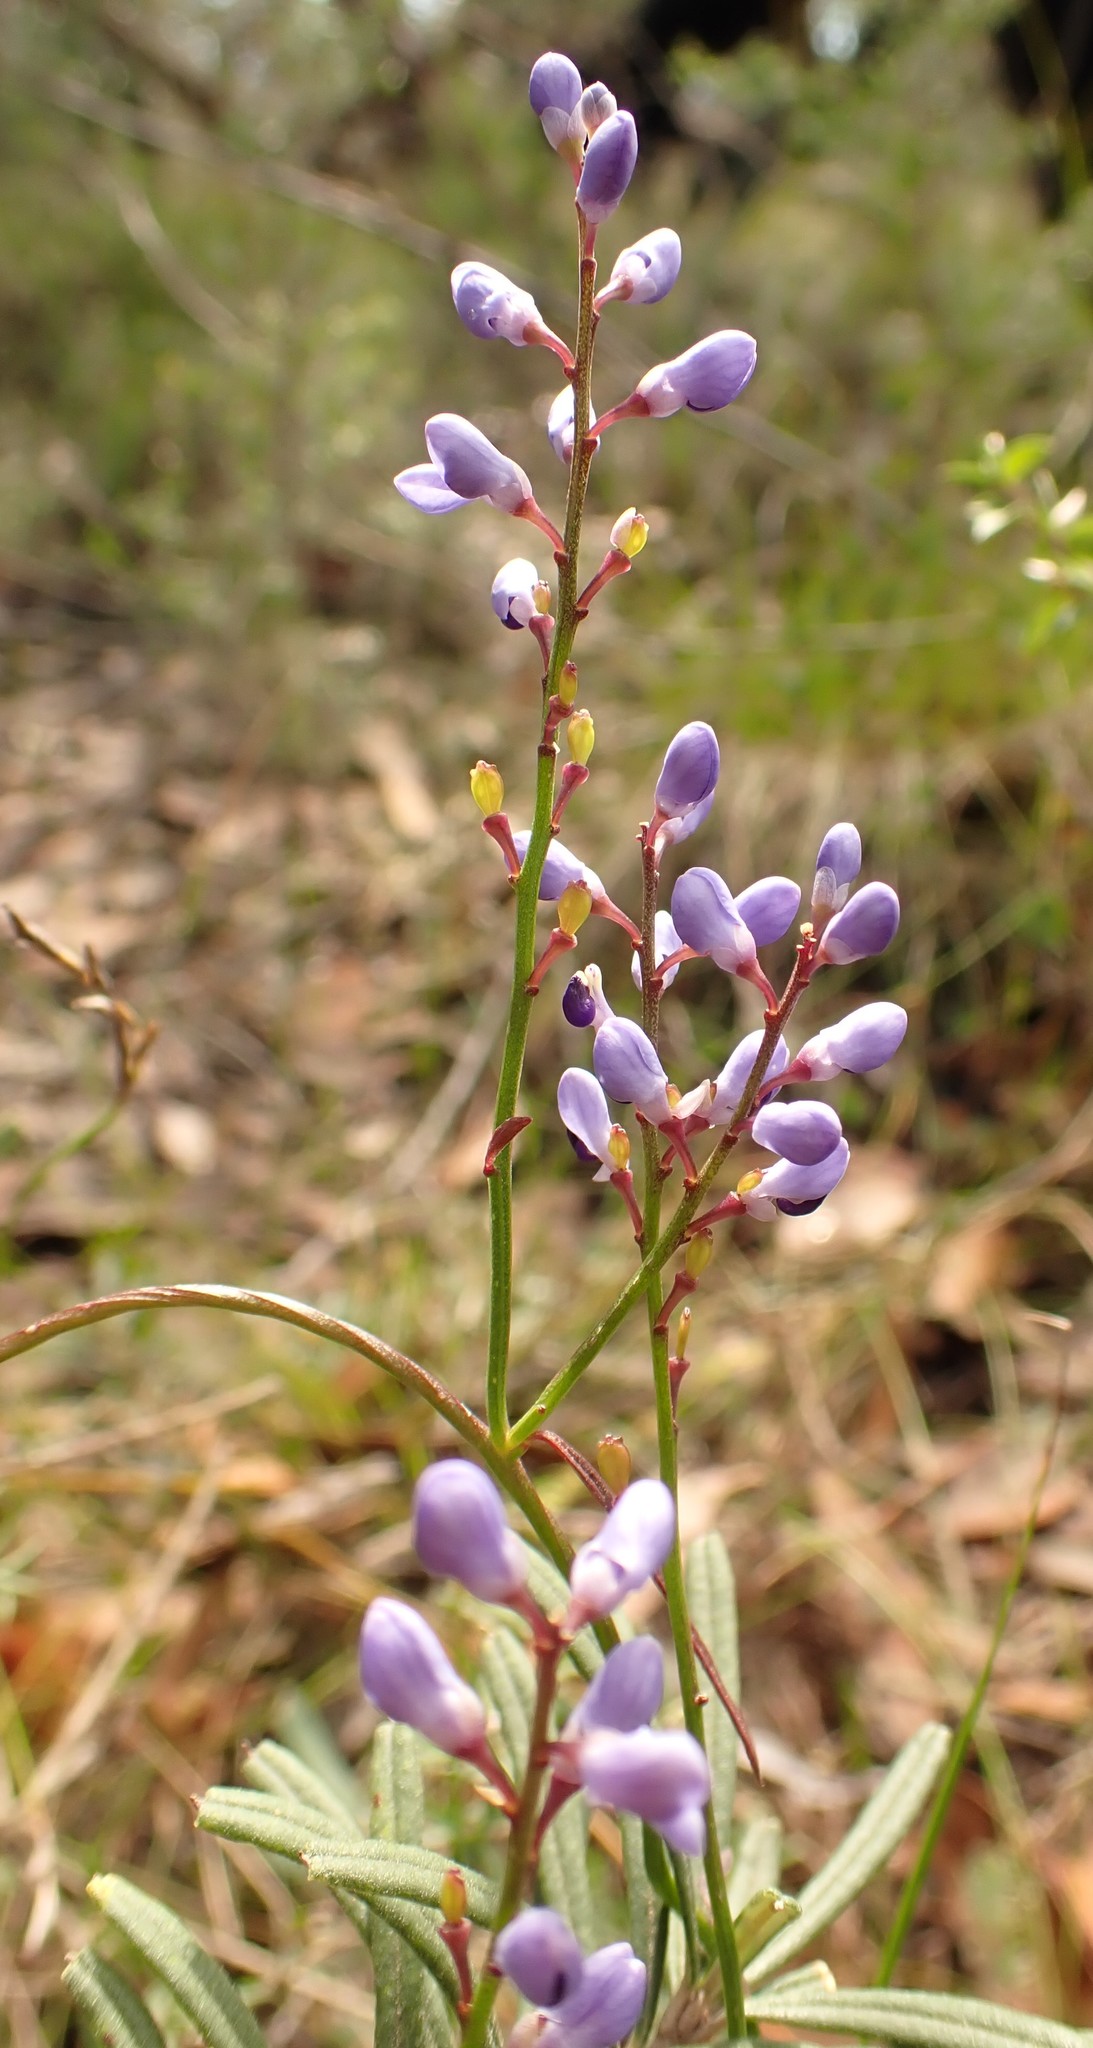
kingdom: Plantae
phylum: Tracheophyta
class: Magnoliopsida
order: Fabales
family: Polygalaceae
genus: Comesperma
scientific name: Comesperma volubile
